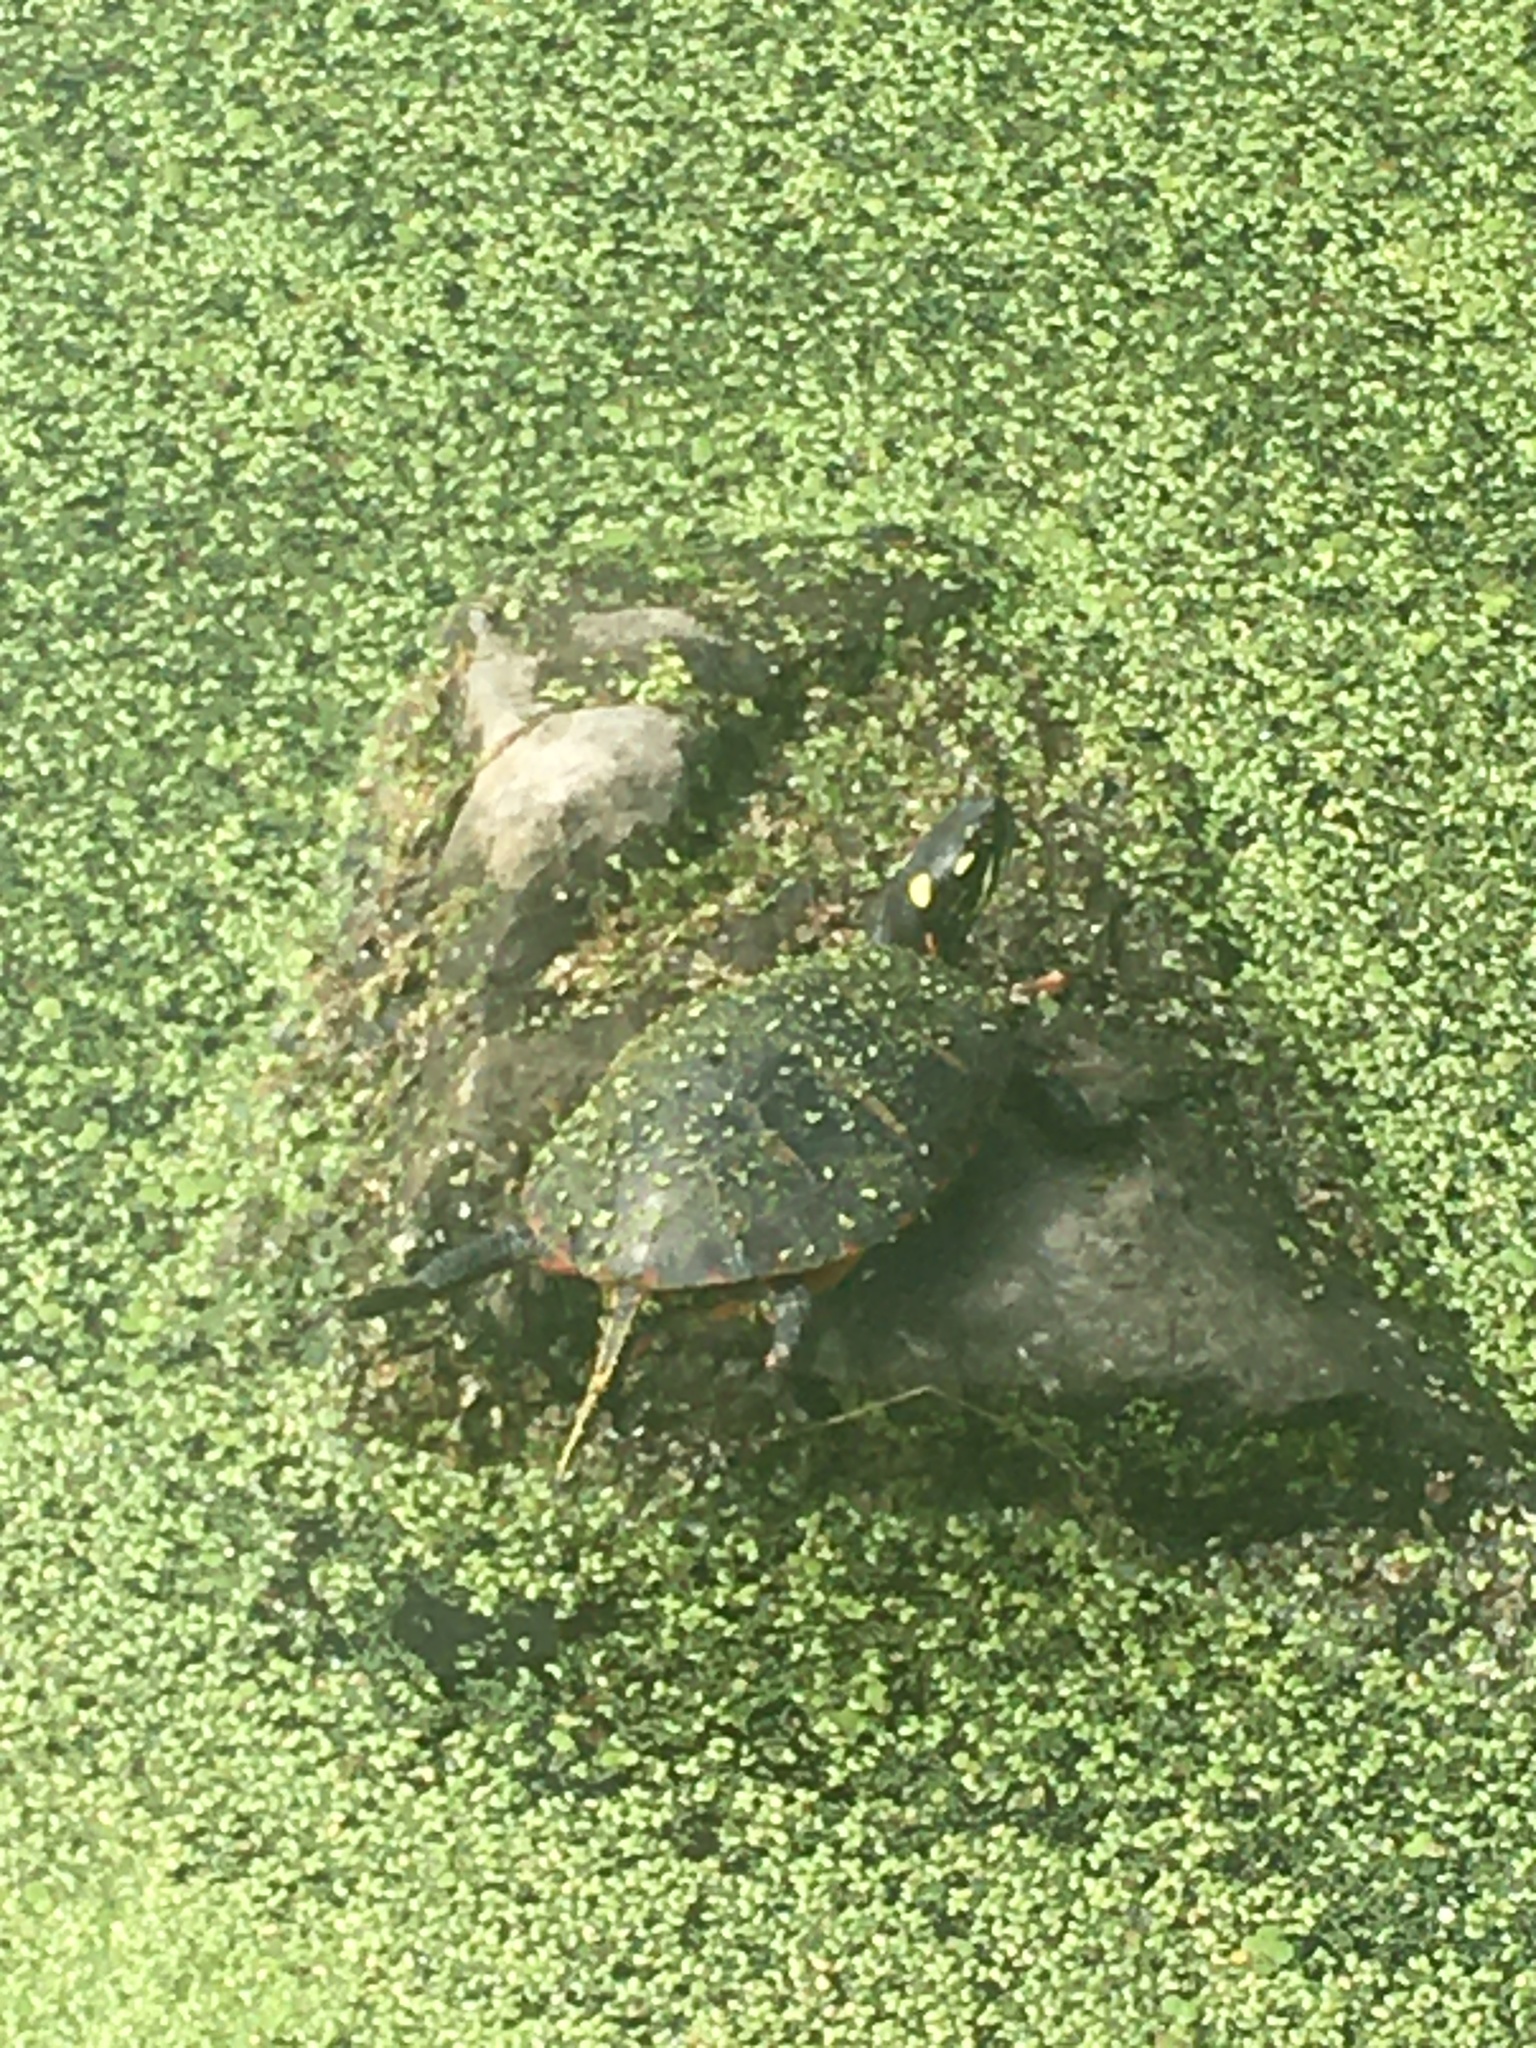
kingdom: Animalia
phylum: Chordata
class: Testudines
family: Emydidae
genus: Chrysemys
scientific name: Chrysemys picta
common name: Painted turtle
